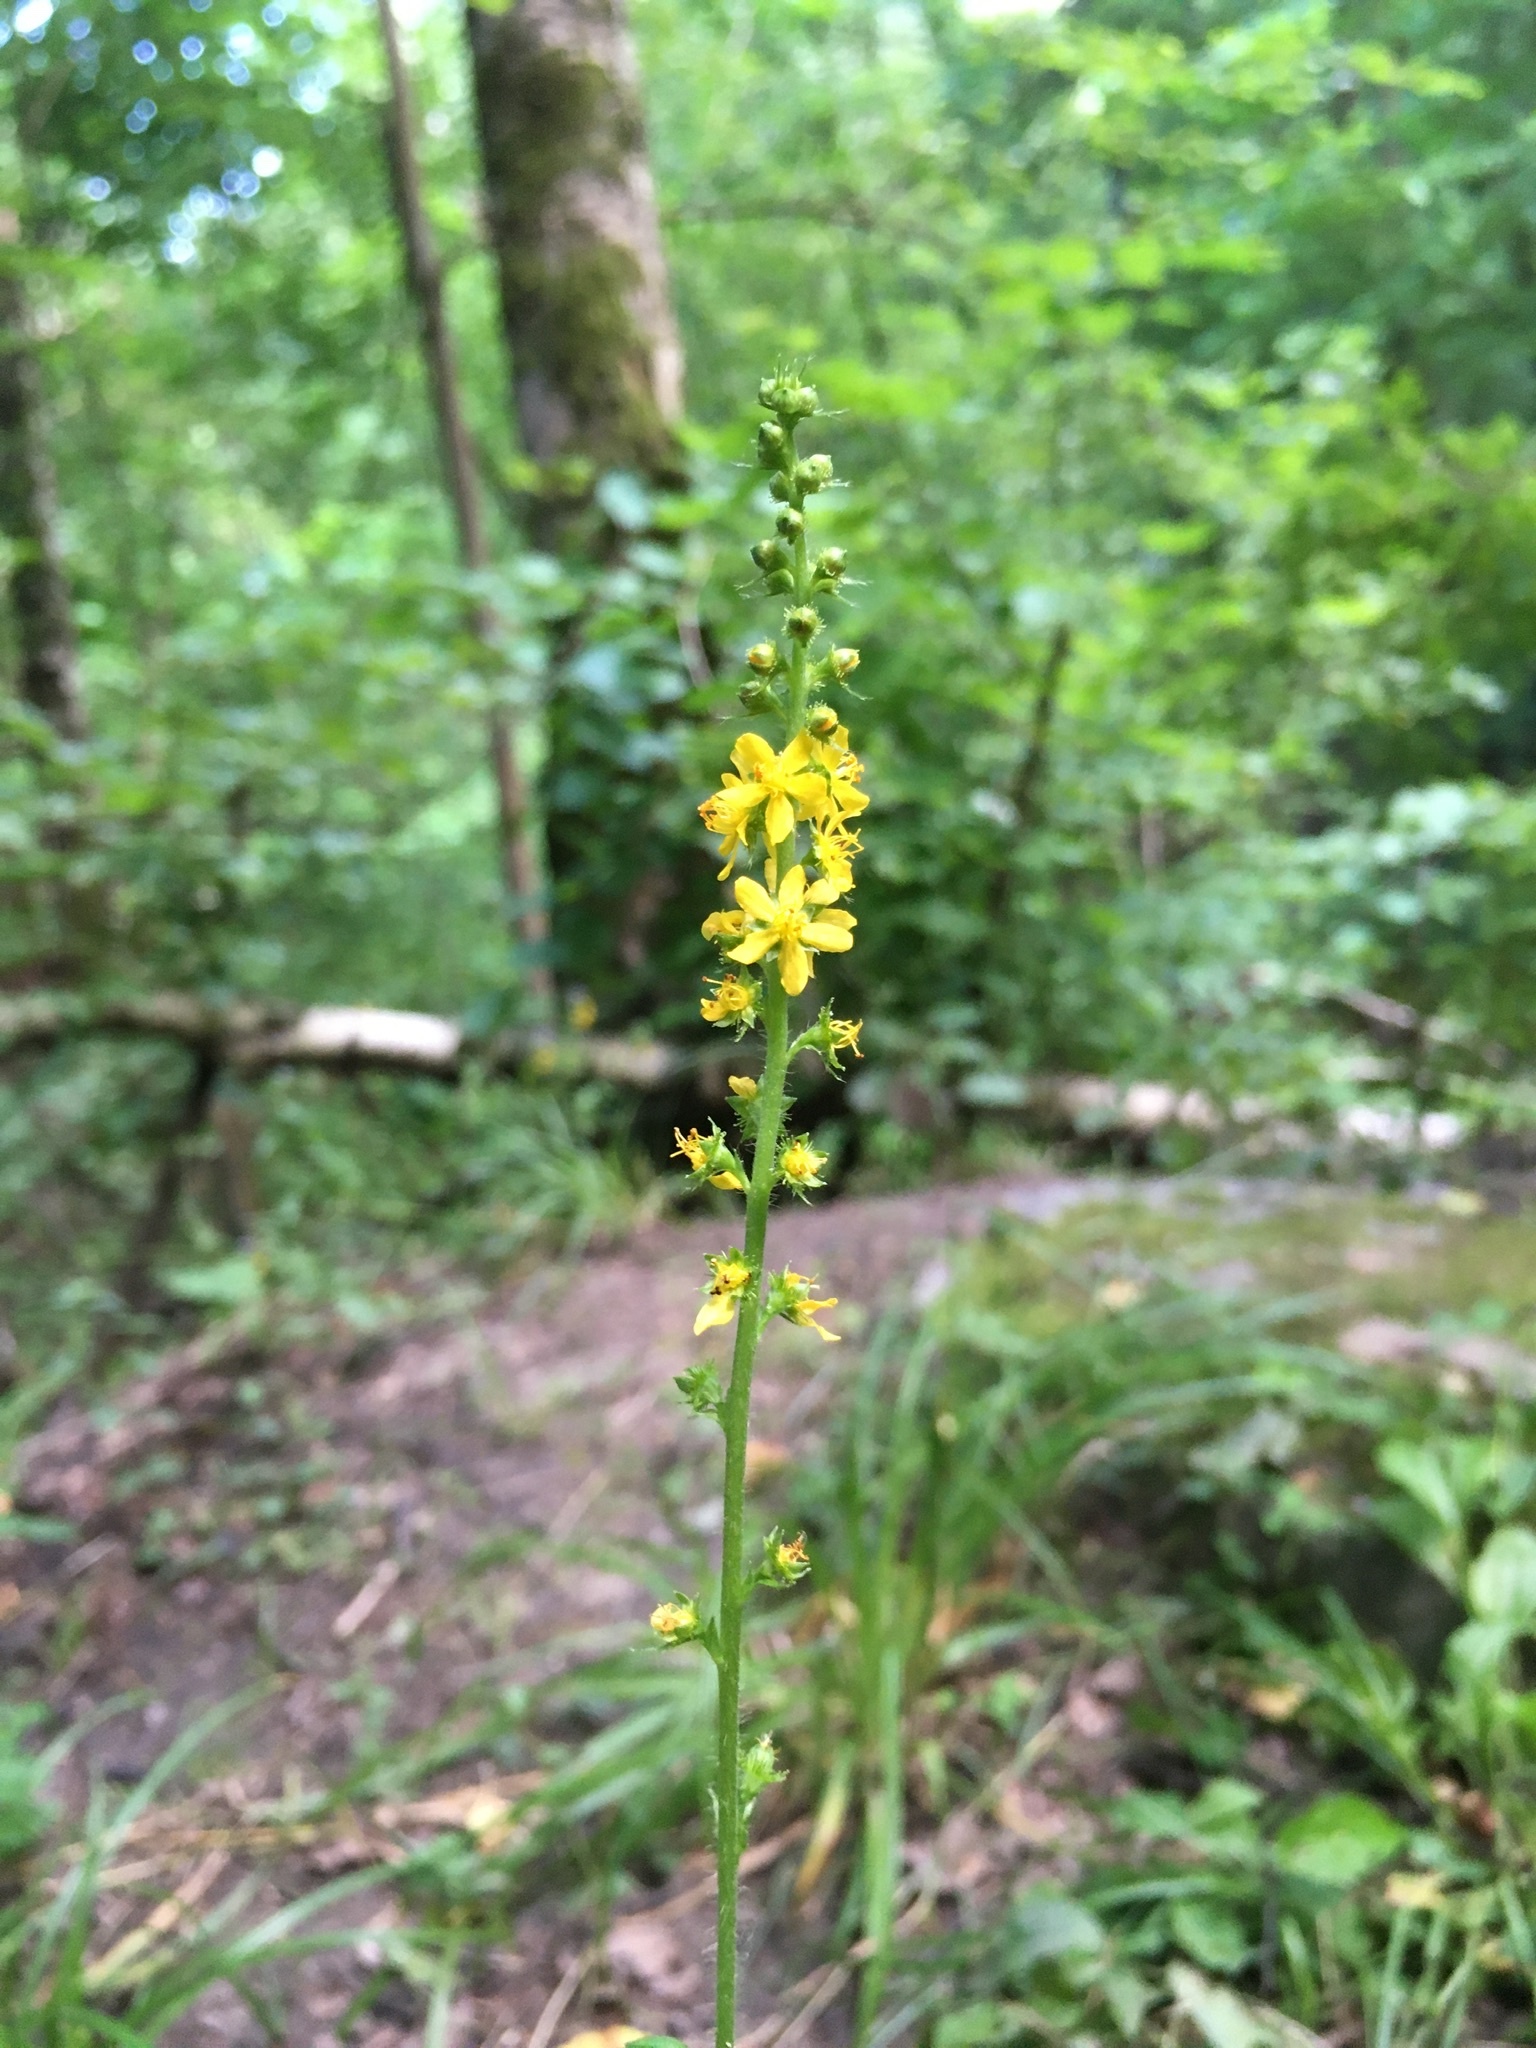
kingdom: Plantae
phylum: Tracheophyta
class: Magnoliopsida
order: Rosales
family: Rosaceae
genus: Agrimonia
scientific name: Agrimonia eupatoria
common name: Agrimony
